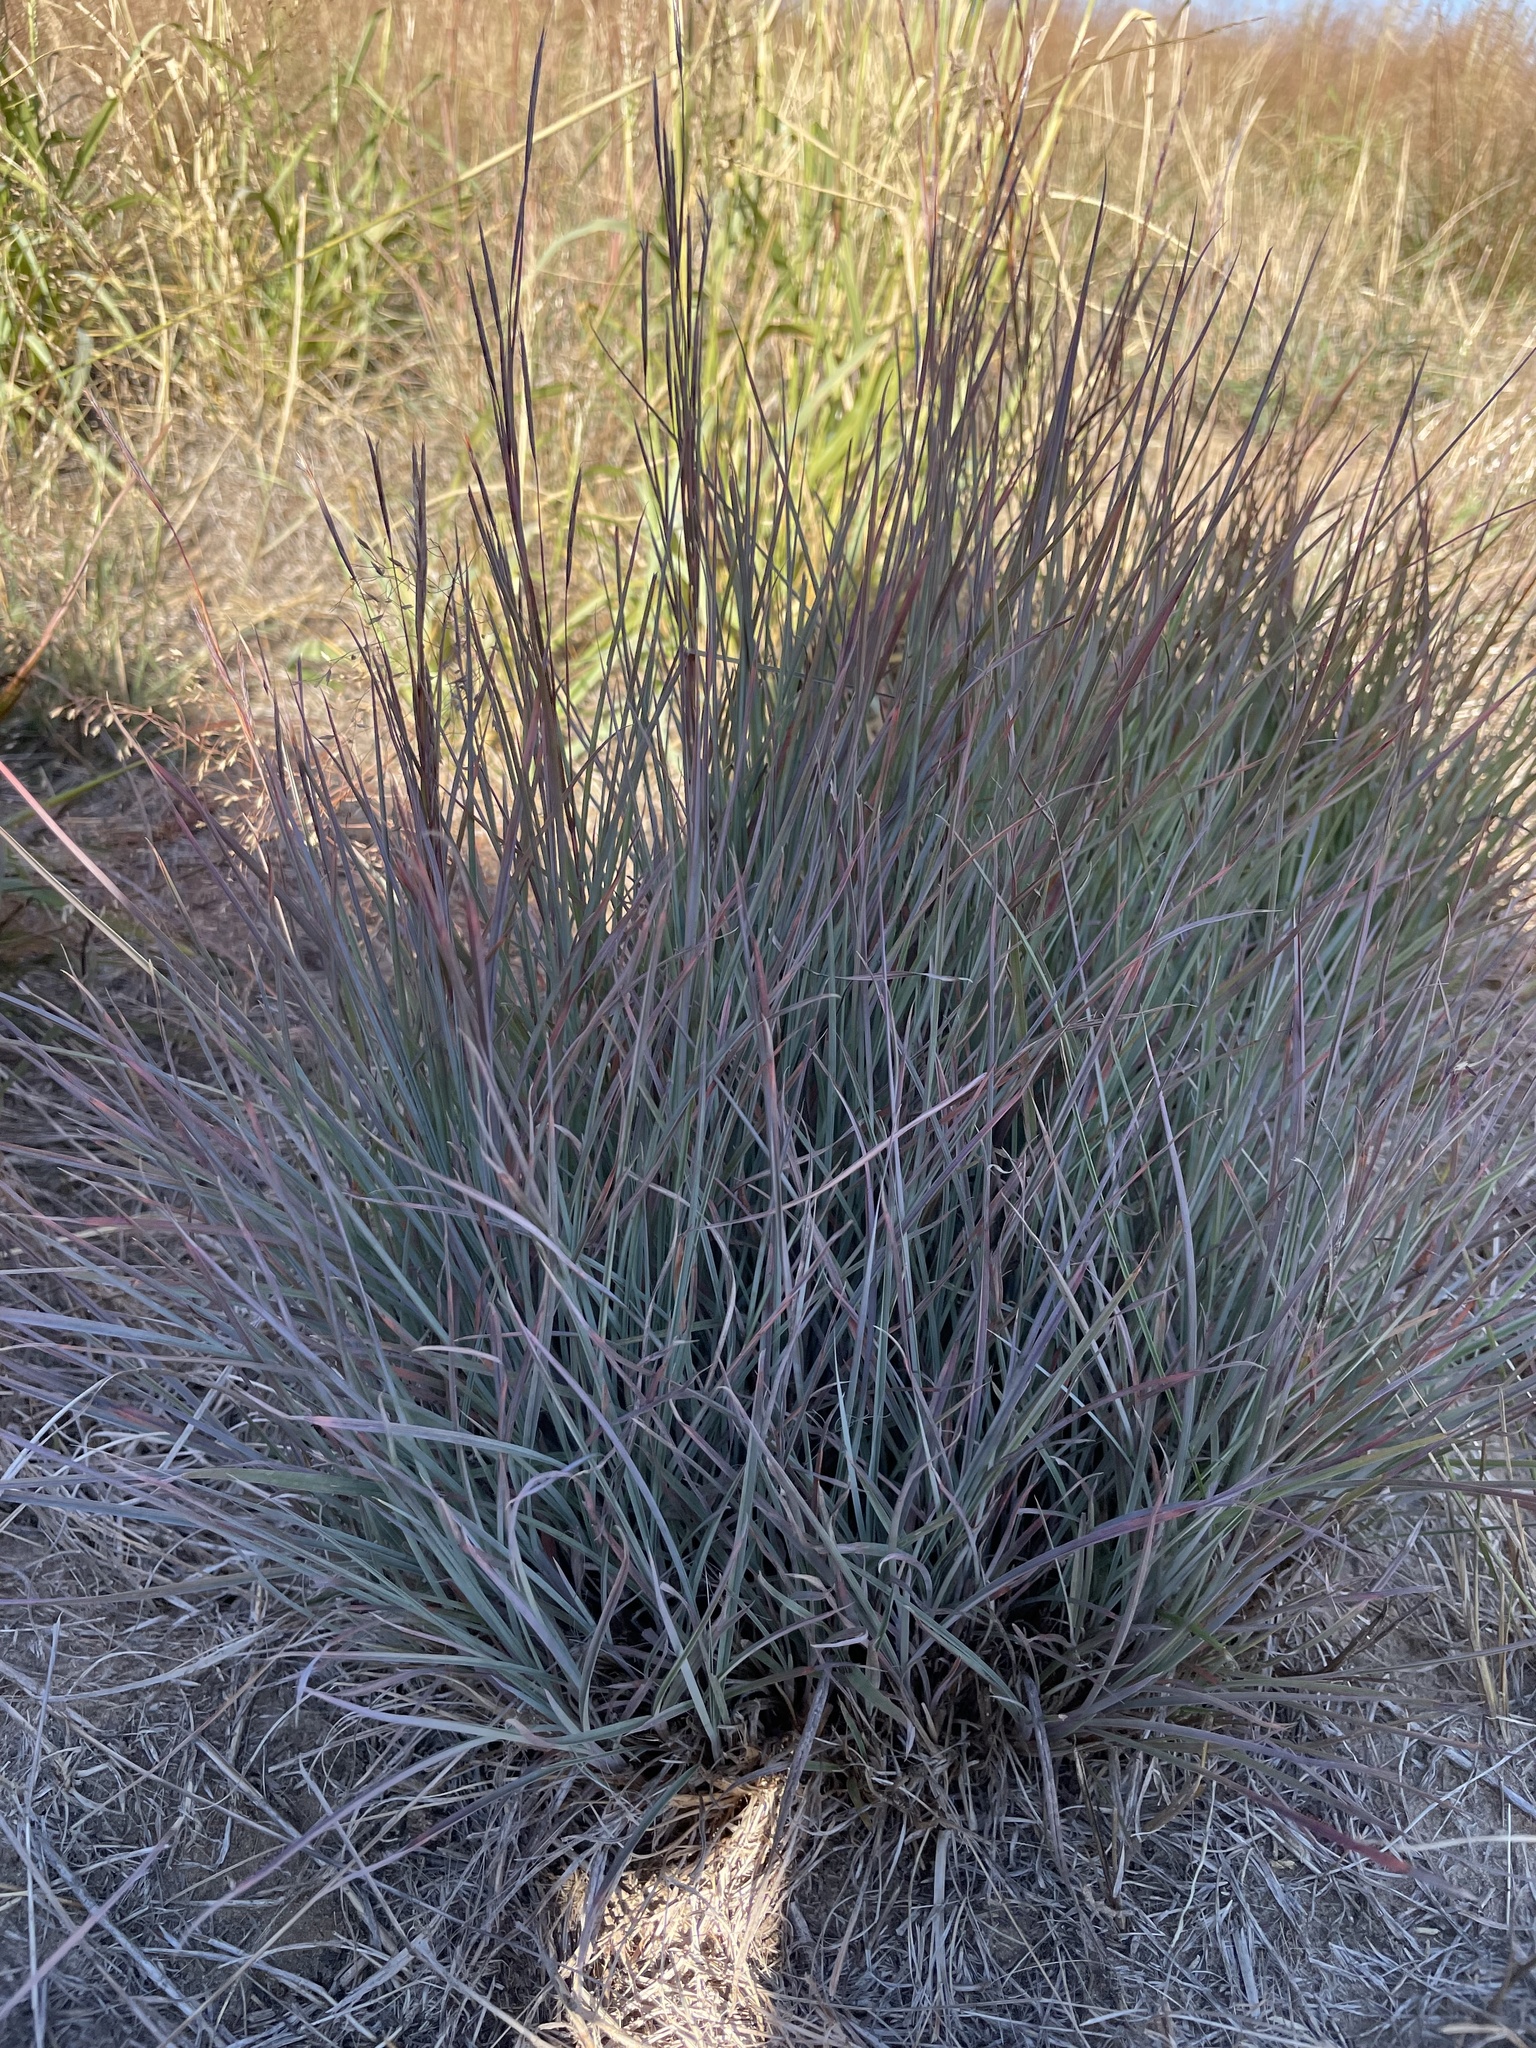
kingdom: Plantae
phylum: Tracheophyta
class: Liliopsida
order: Poales
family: Poaceae
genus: Schizachyrium
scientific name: Schizachyrium scoparium
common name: Little bluestem
